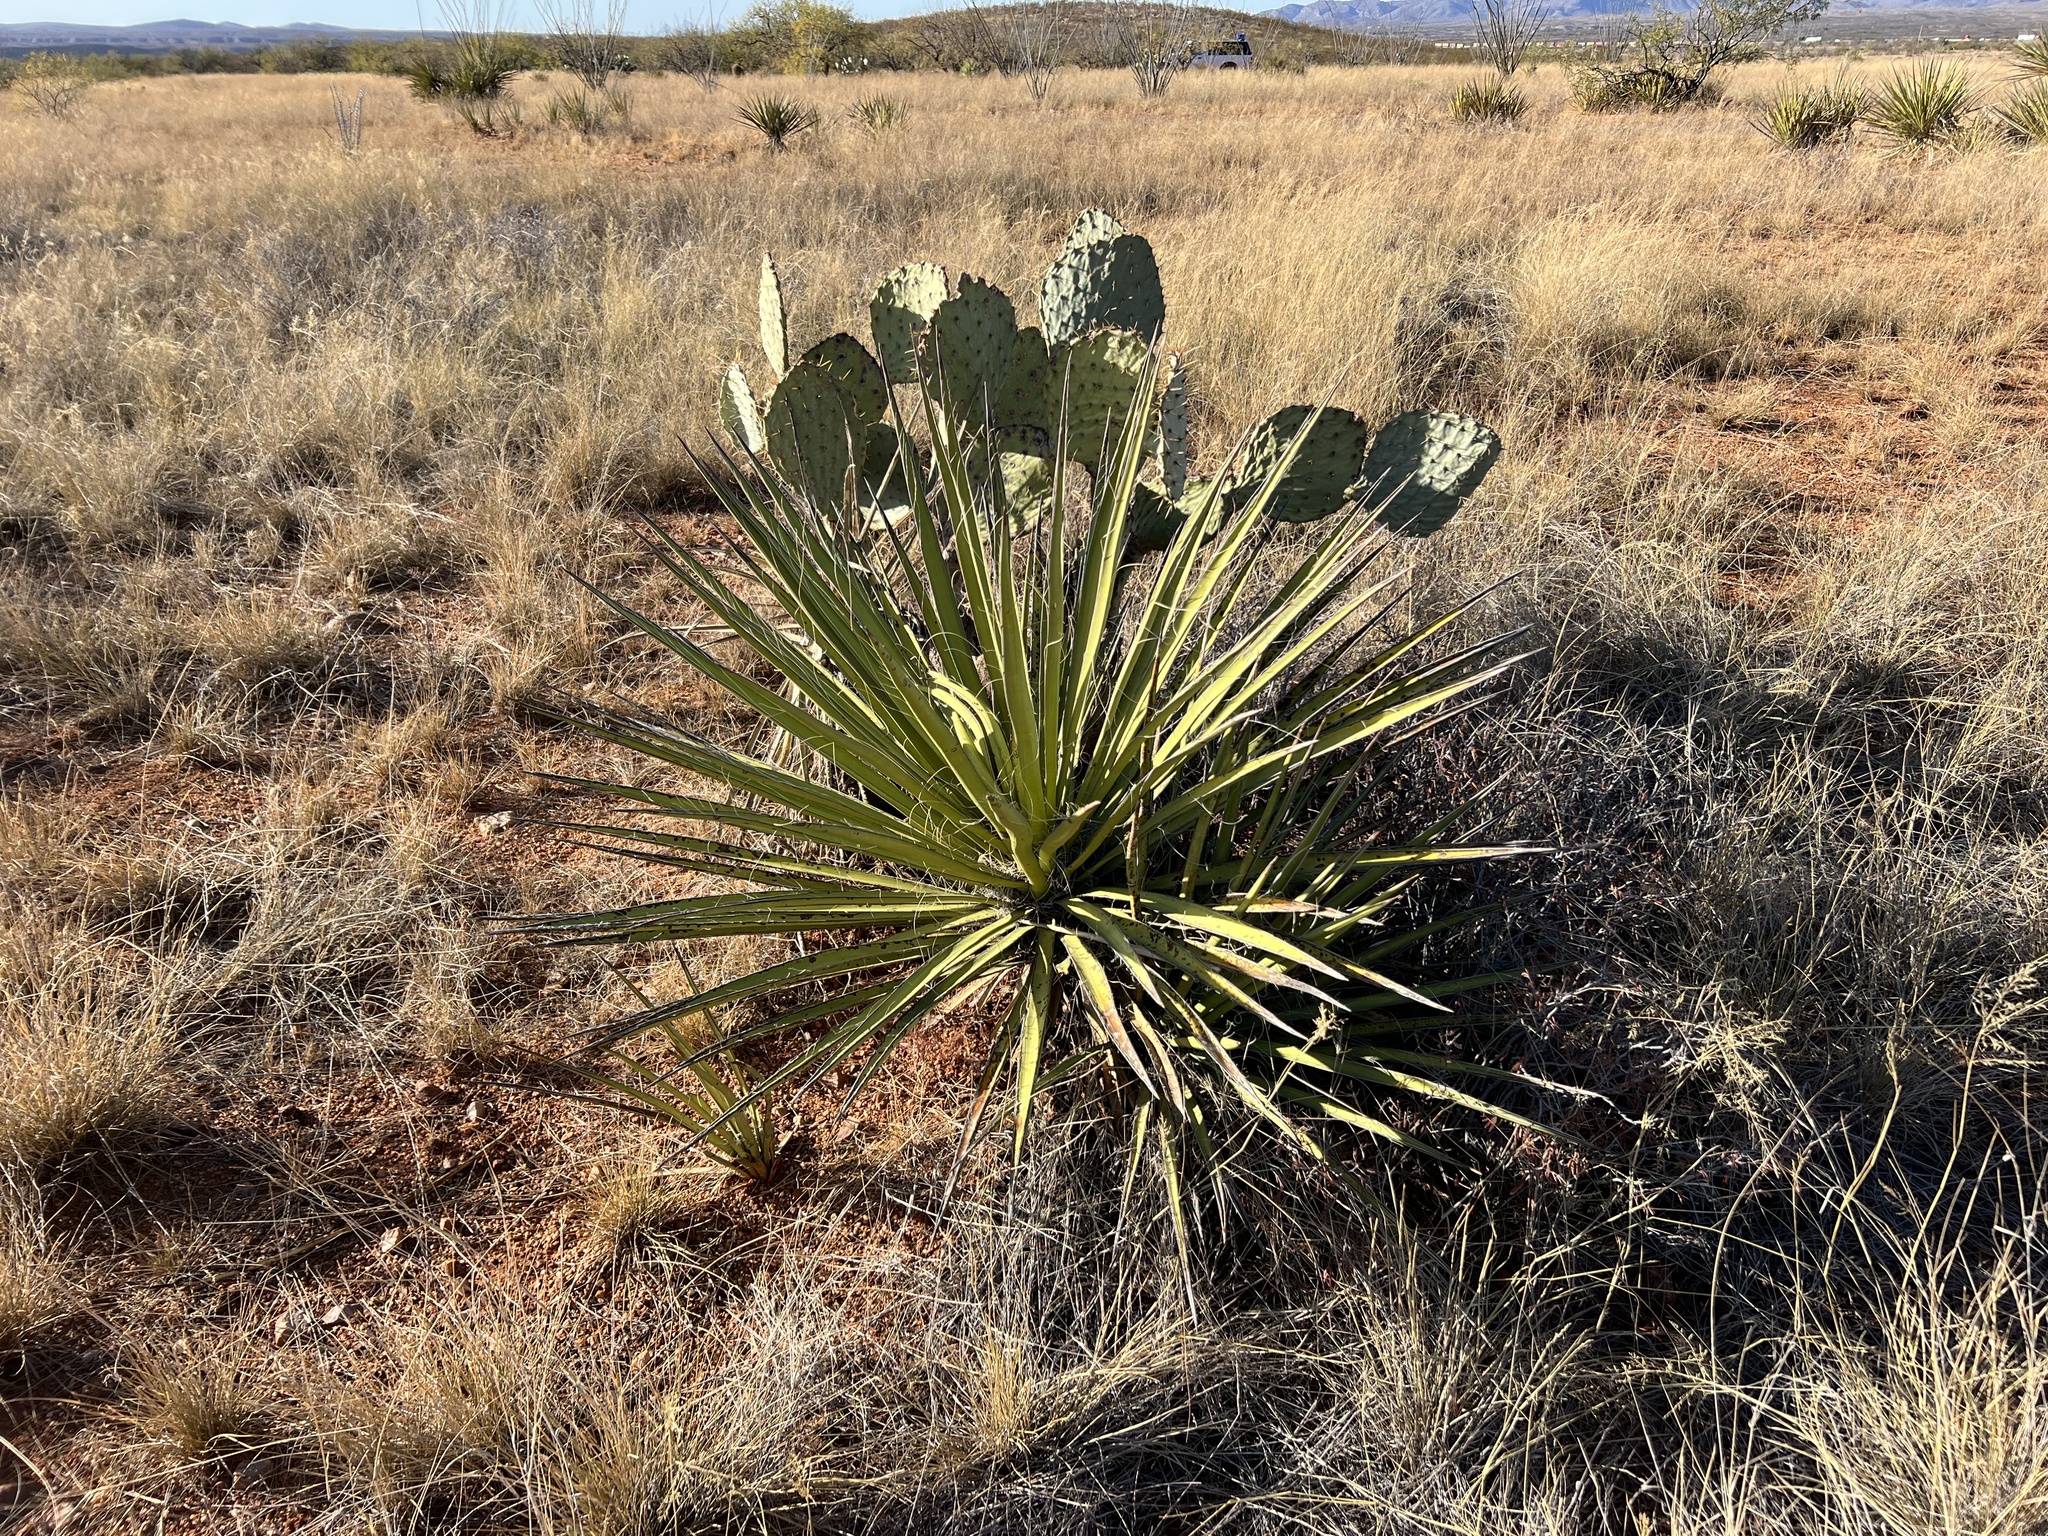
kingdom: Plantae
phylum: Tracheophyta
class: Liliopsida
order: Asparagales
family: Asparagaceae
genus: Yucca
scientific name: Yucca baccata
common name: Banana yucca
